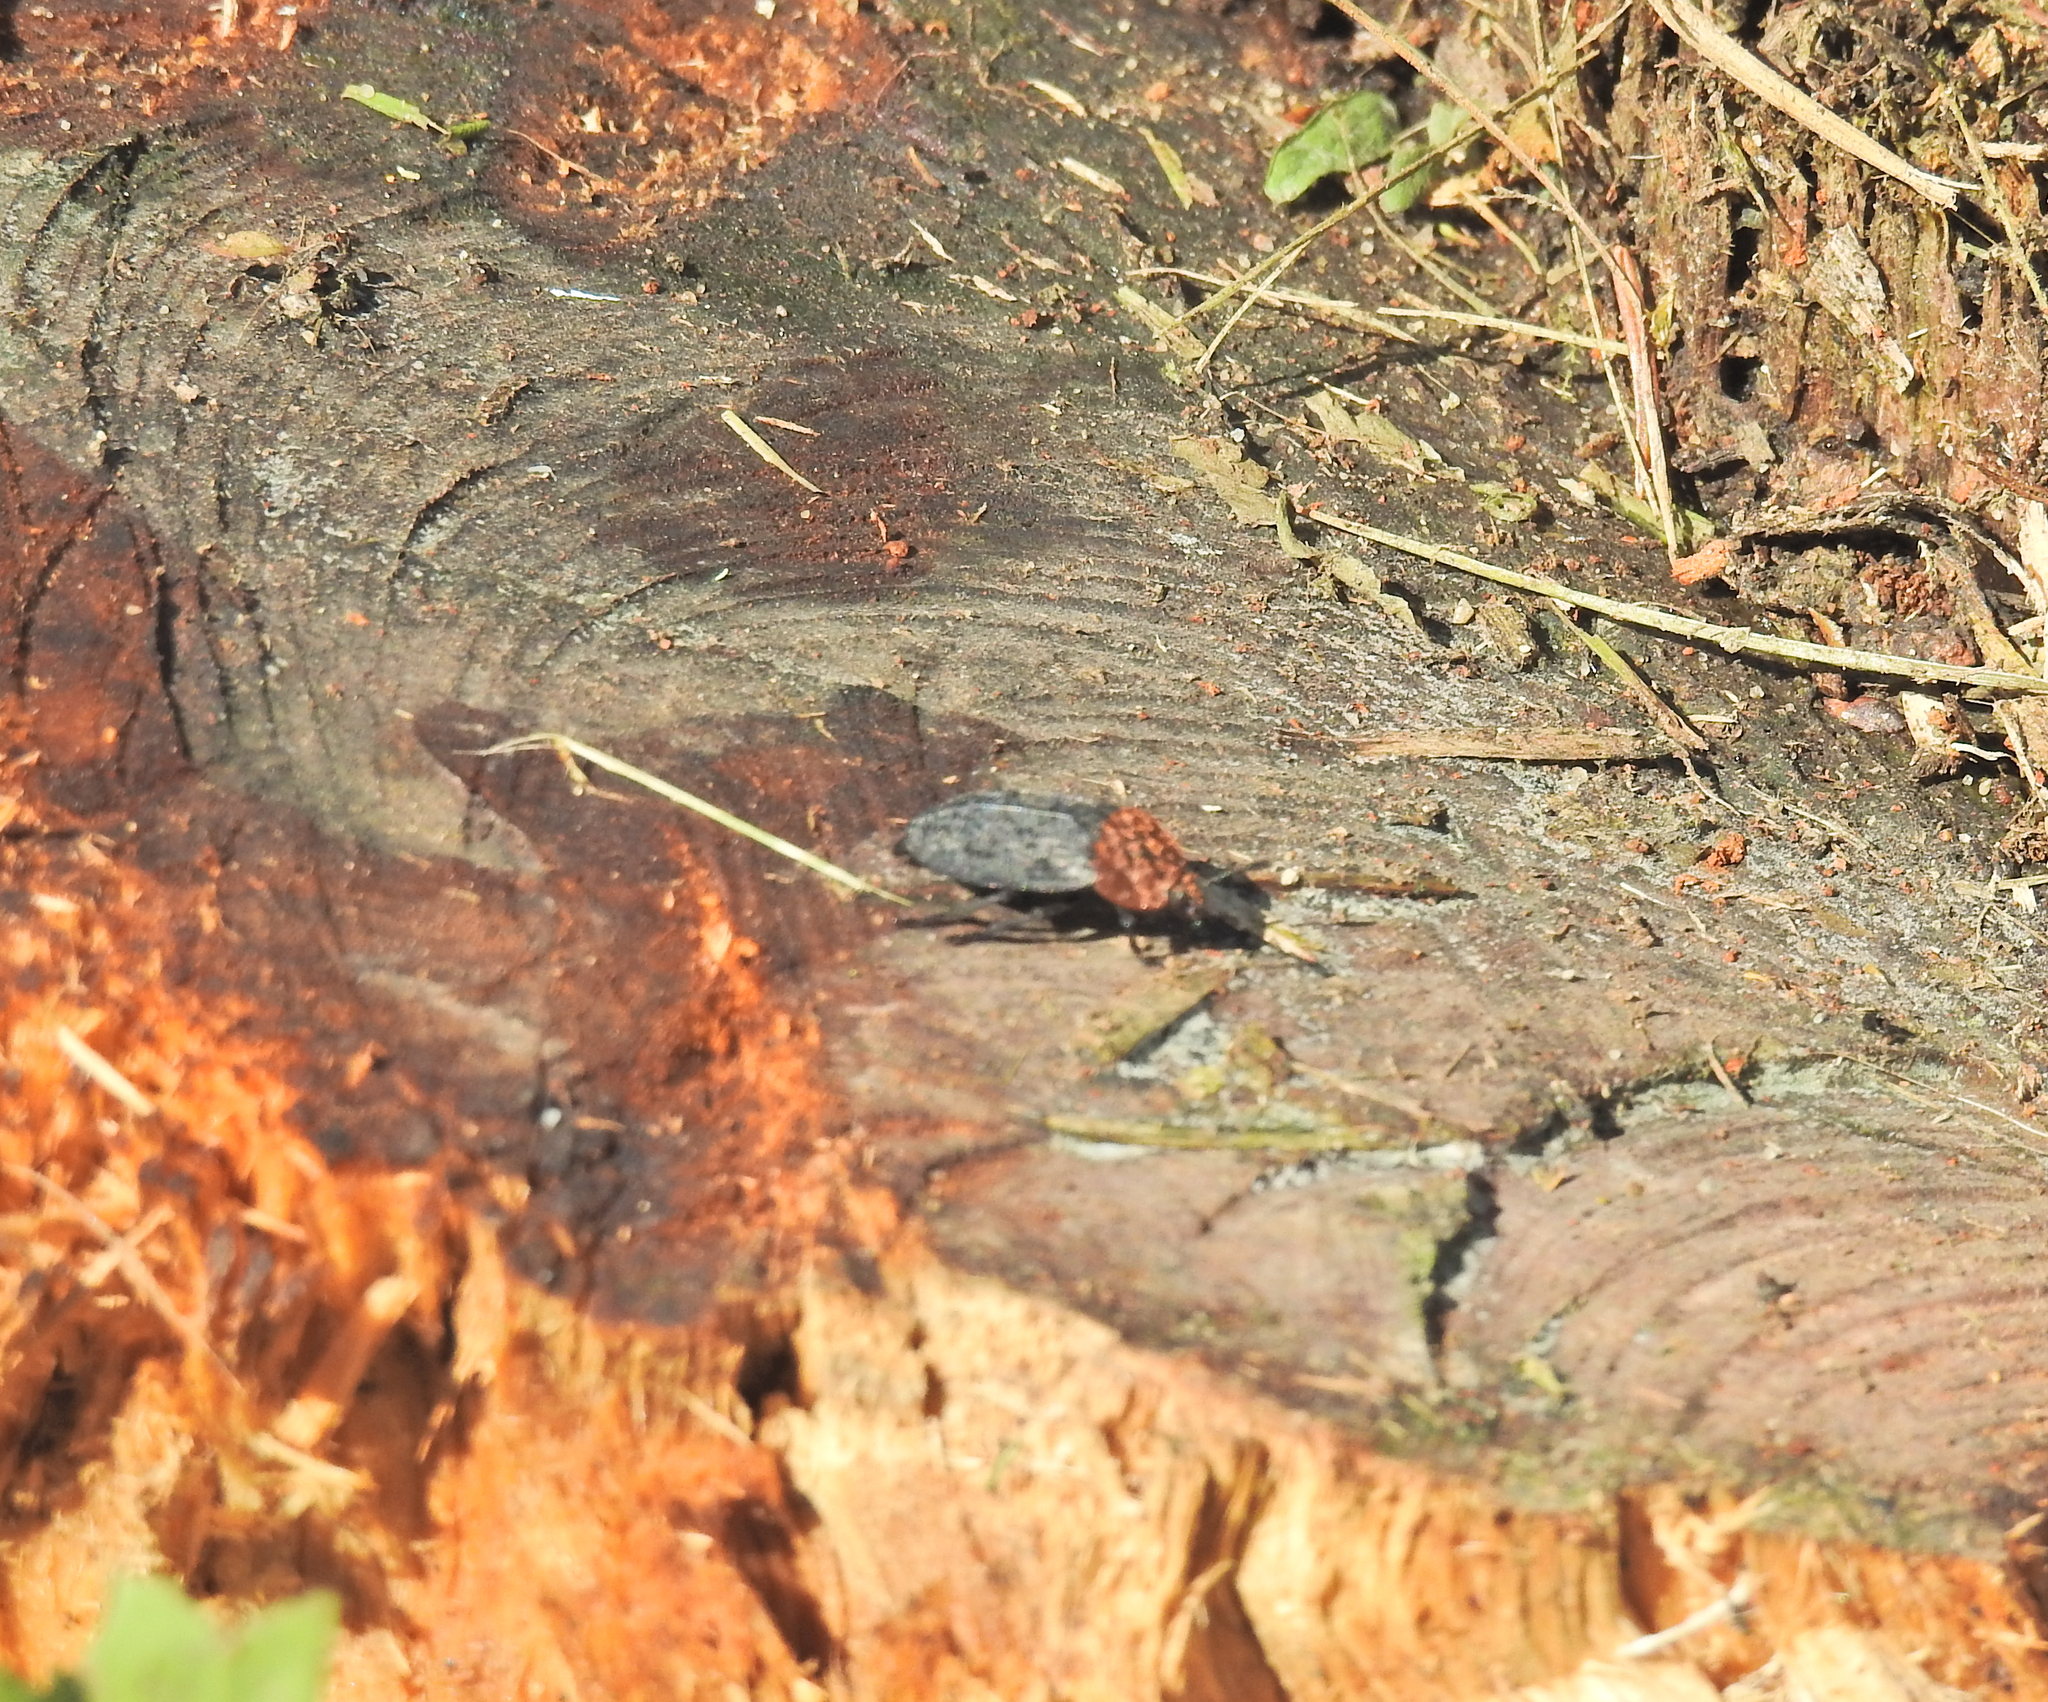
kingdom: Animalia
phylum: Arthropoda
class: Insecta
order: Coleoptera
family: Staphylinidae
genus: Oiceoptoma
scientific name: Oiceoptoma thoracicum
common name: Red-breasted carrion beetle
